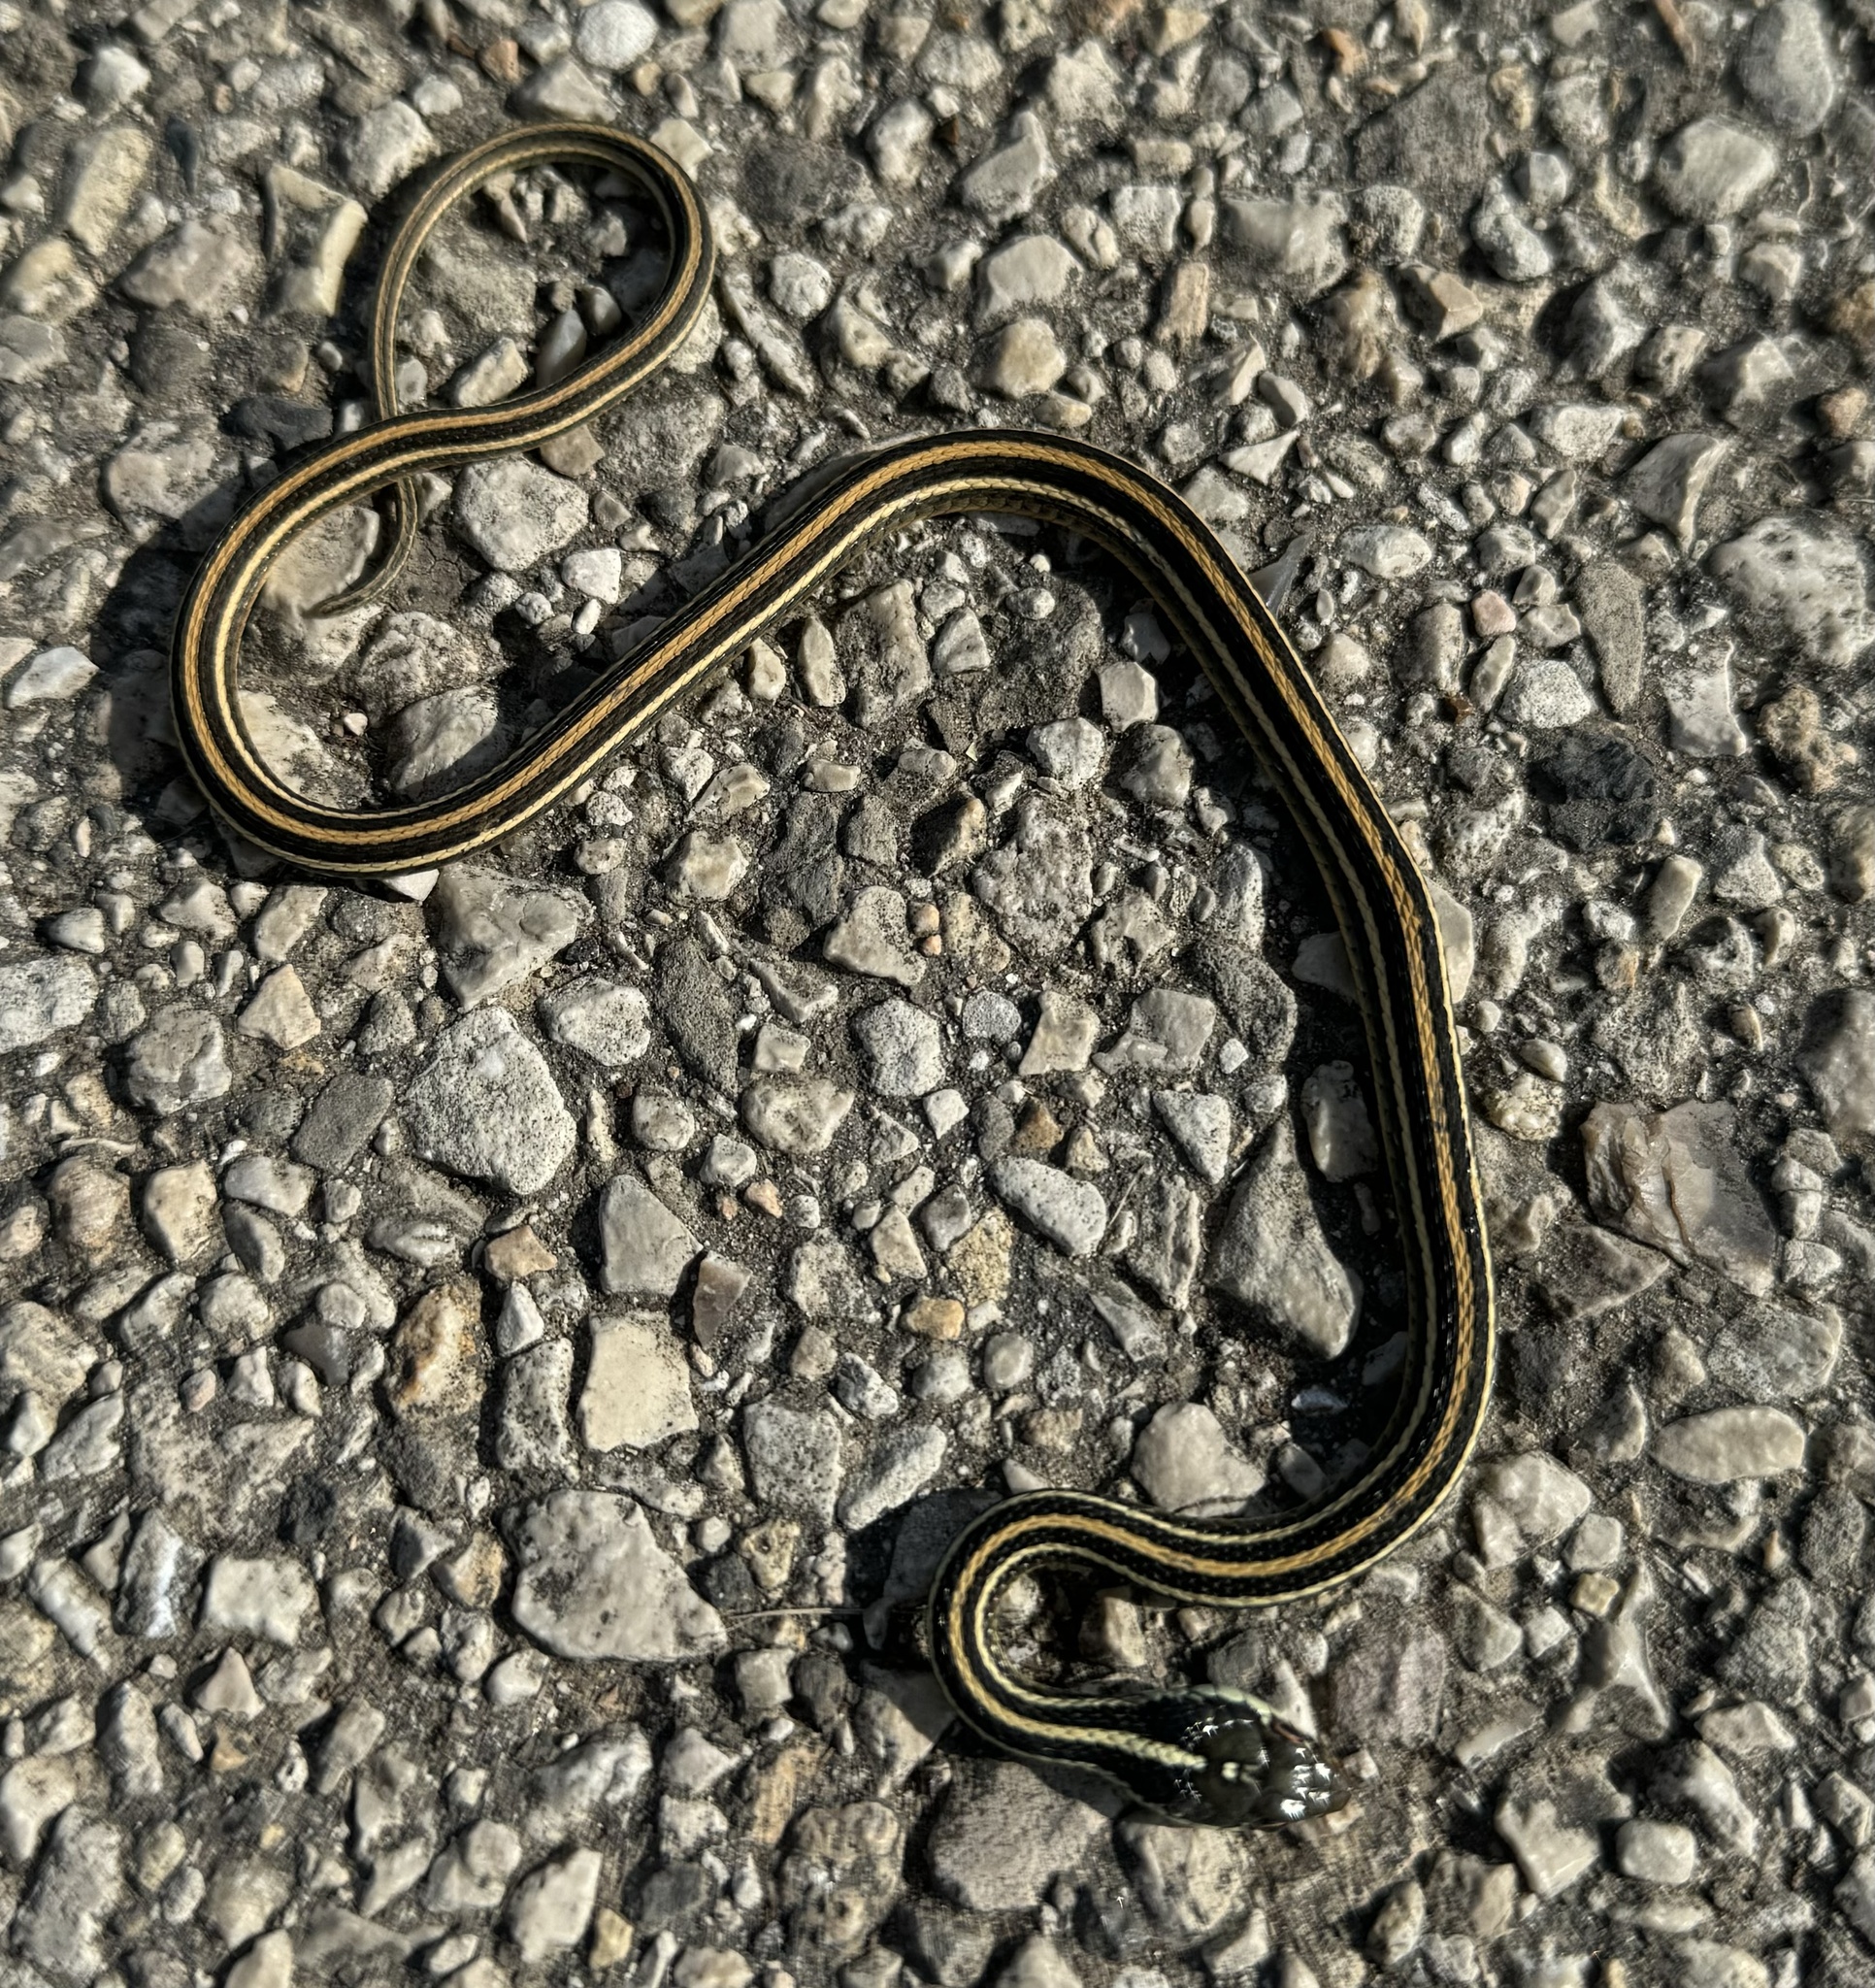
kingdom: Animalia
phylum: Chordata
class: Squamata
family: Colubridae
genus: Thamnophis
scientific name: Thamnophis proximus
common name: Western ribbon snake
